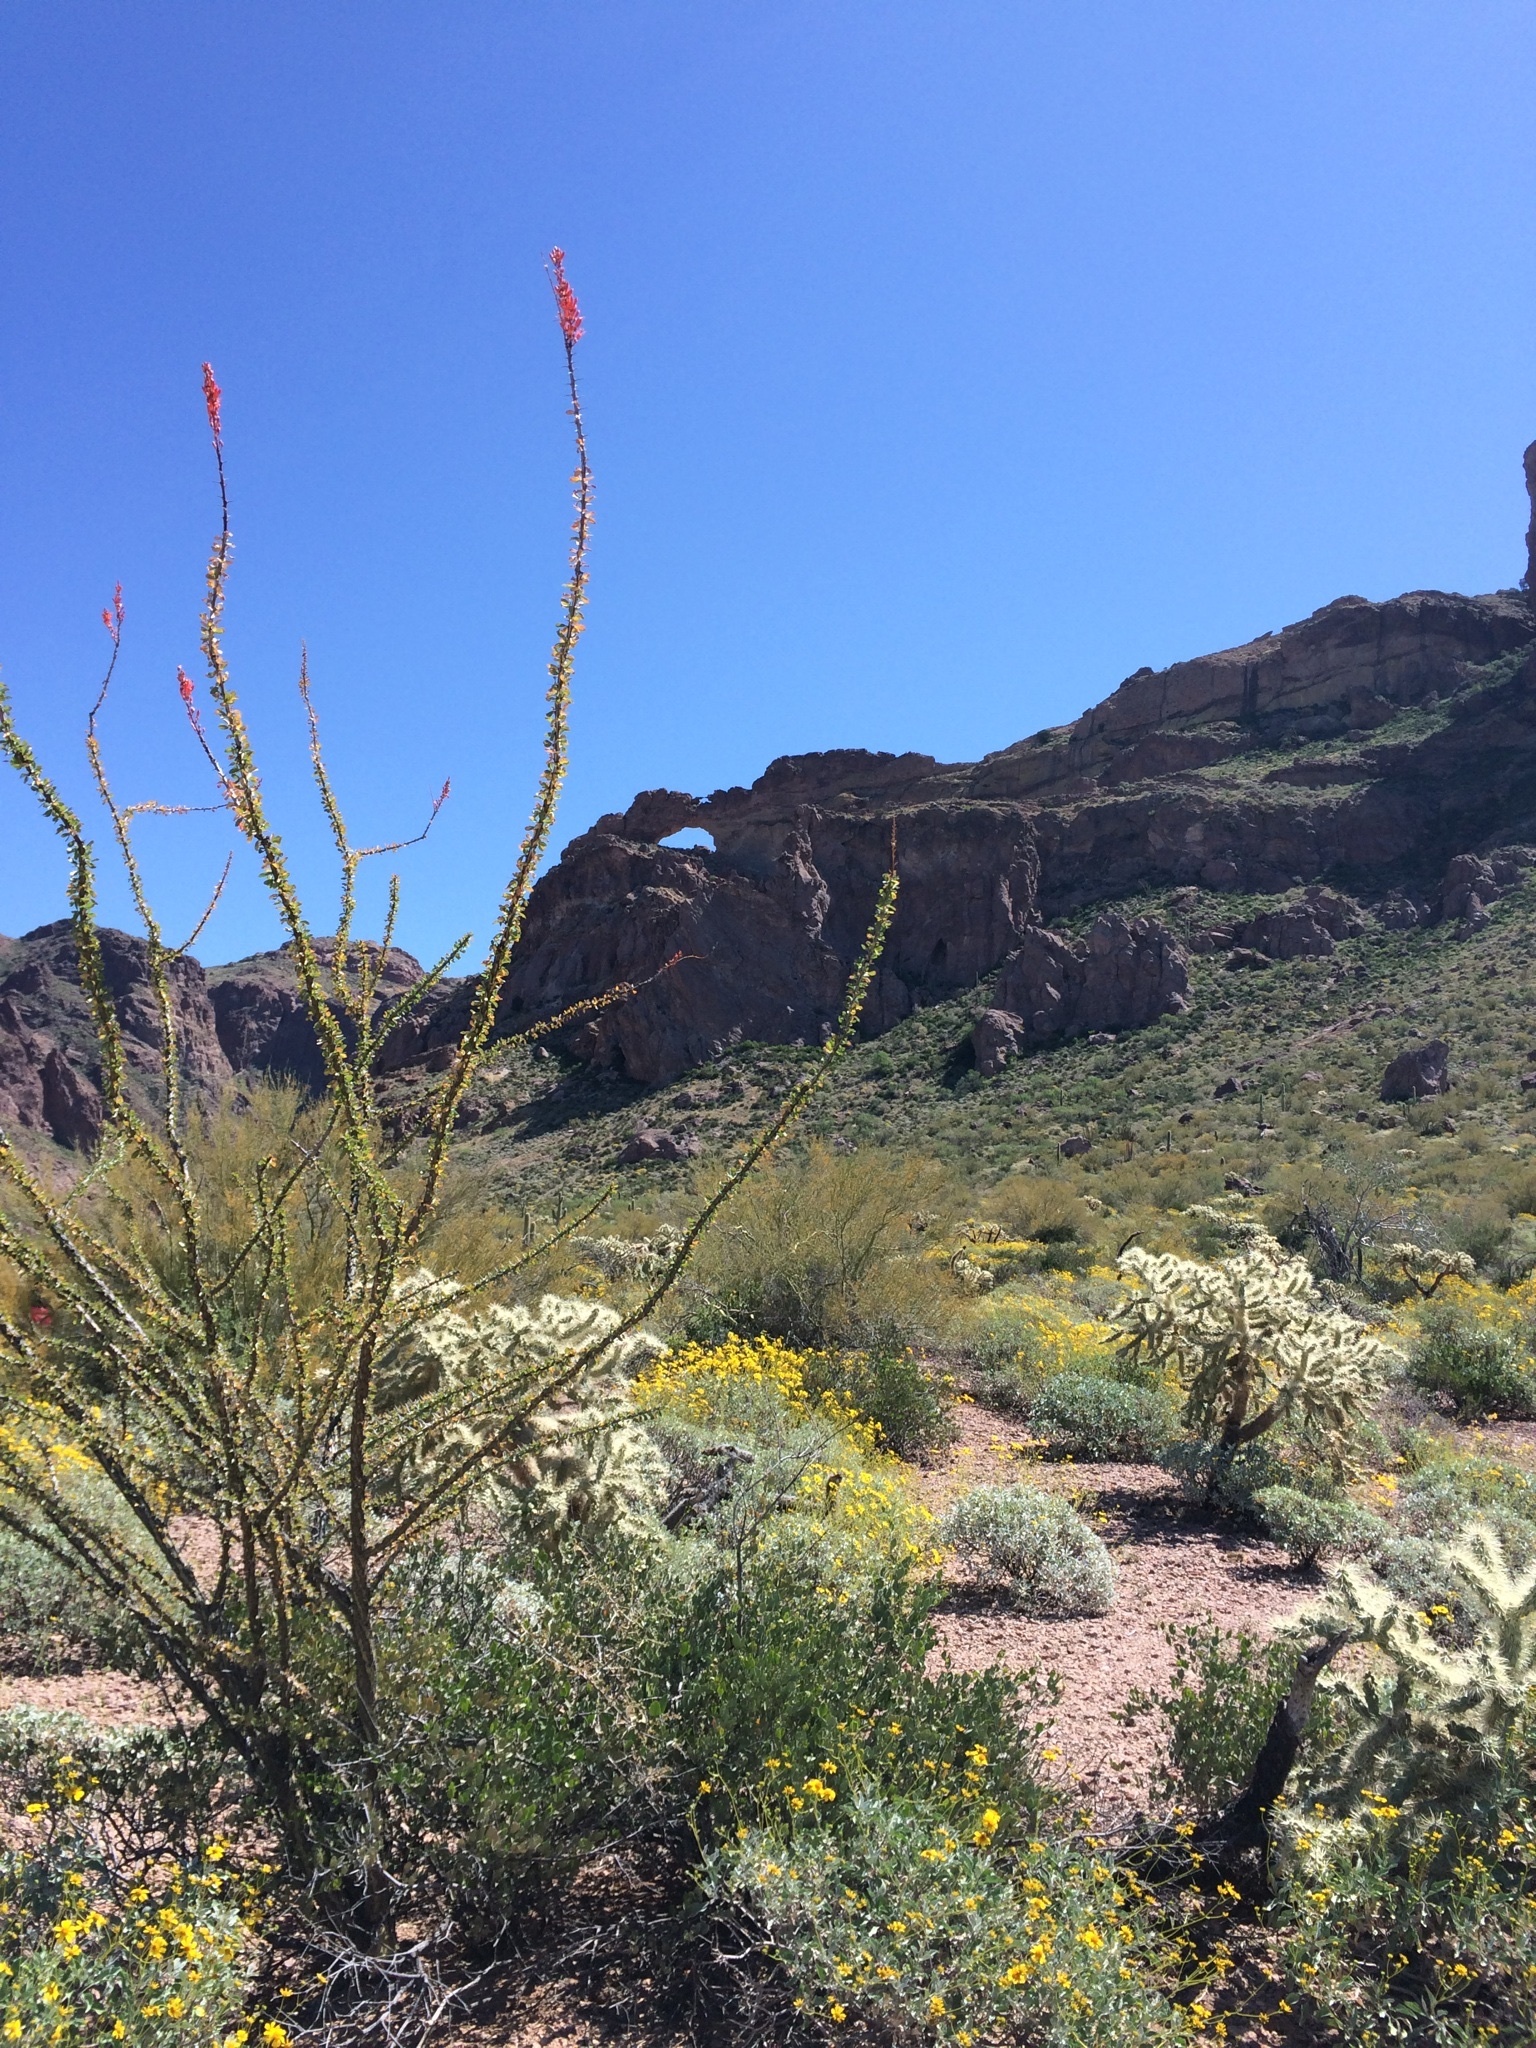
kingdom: Plantae
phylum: Tracheophyta
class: Magnoliopsida
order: Ericales
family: Fouquieriaceae
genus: Fouquieria
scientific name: Fouquieria splendens
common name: Vine-cactus
